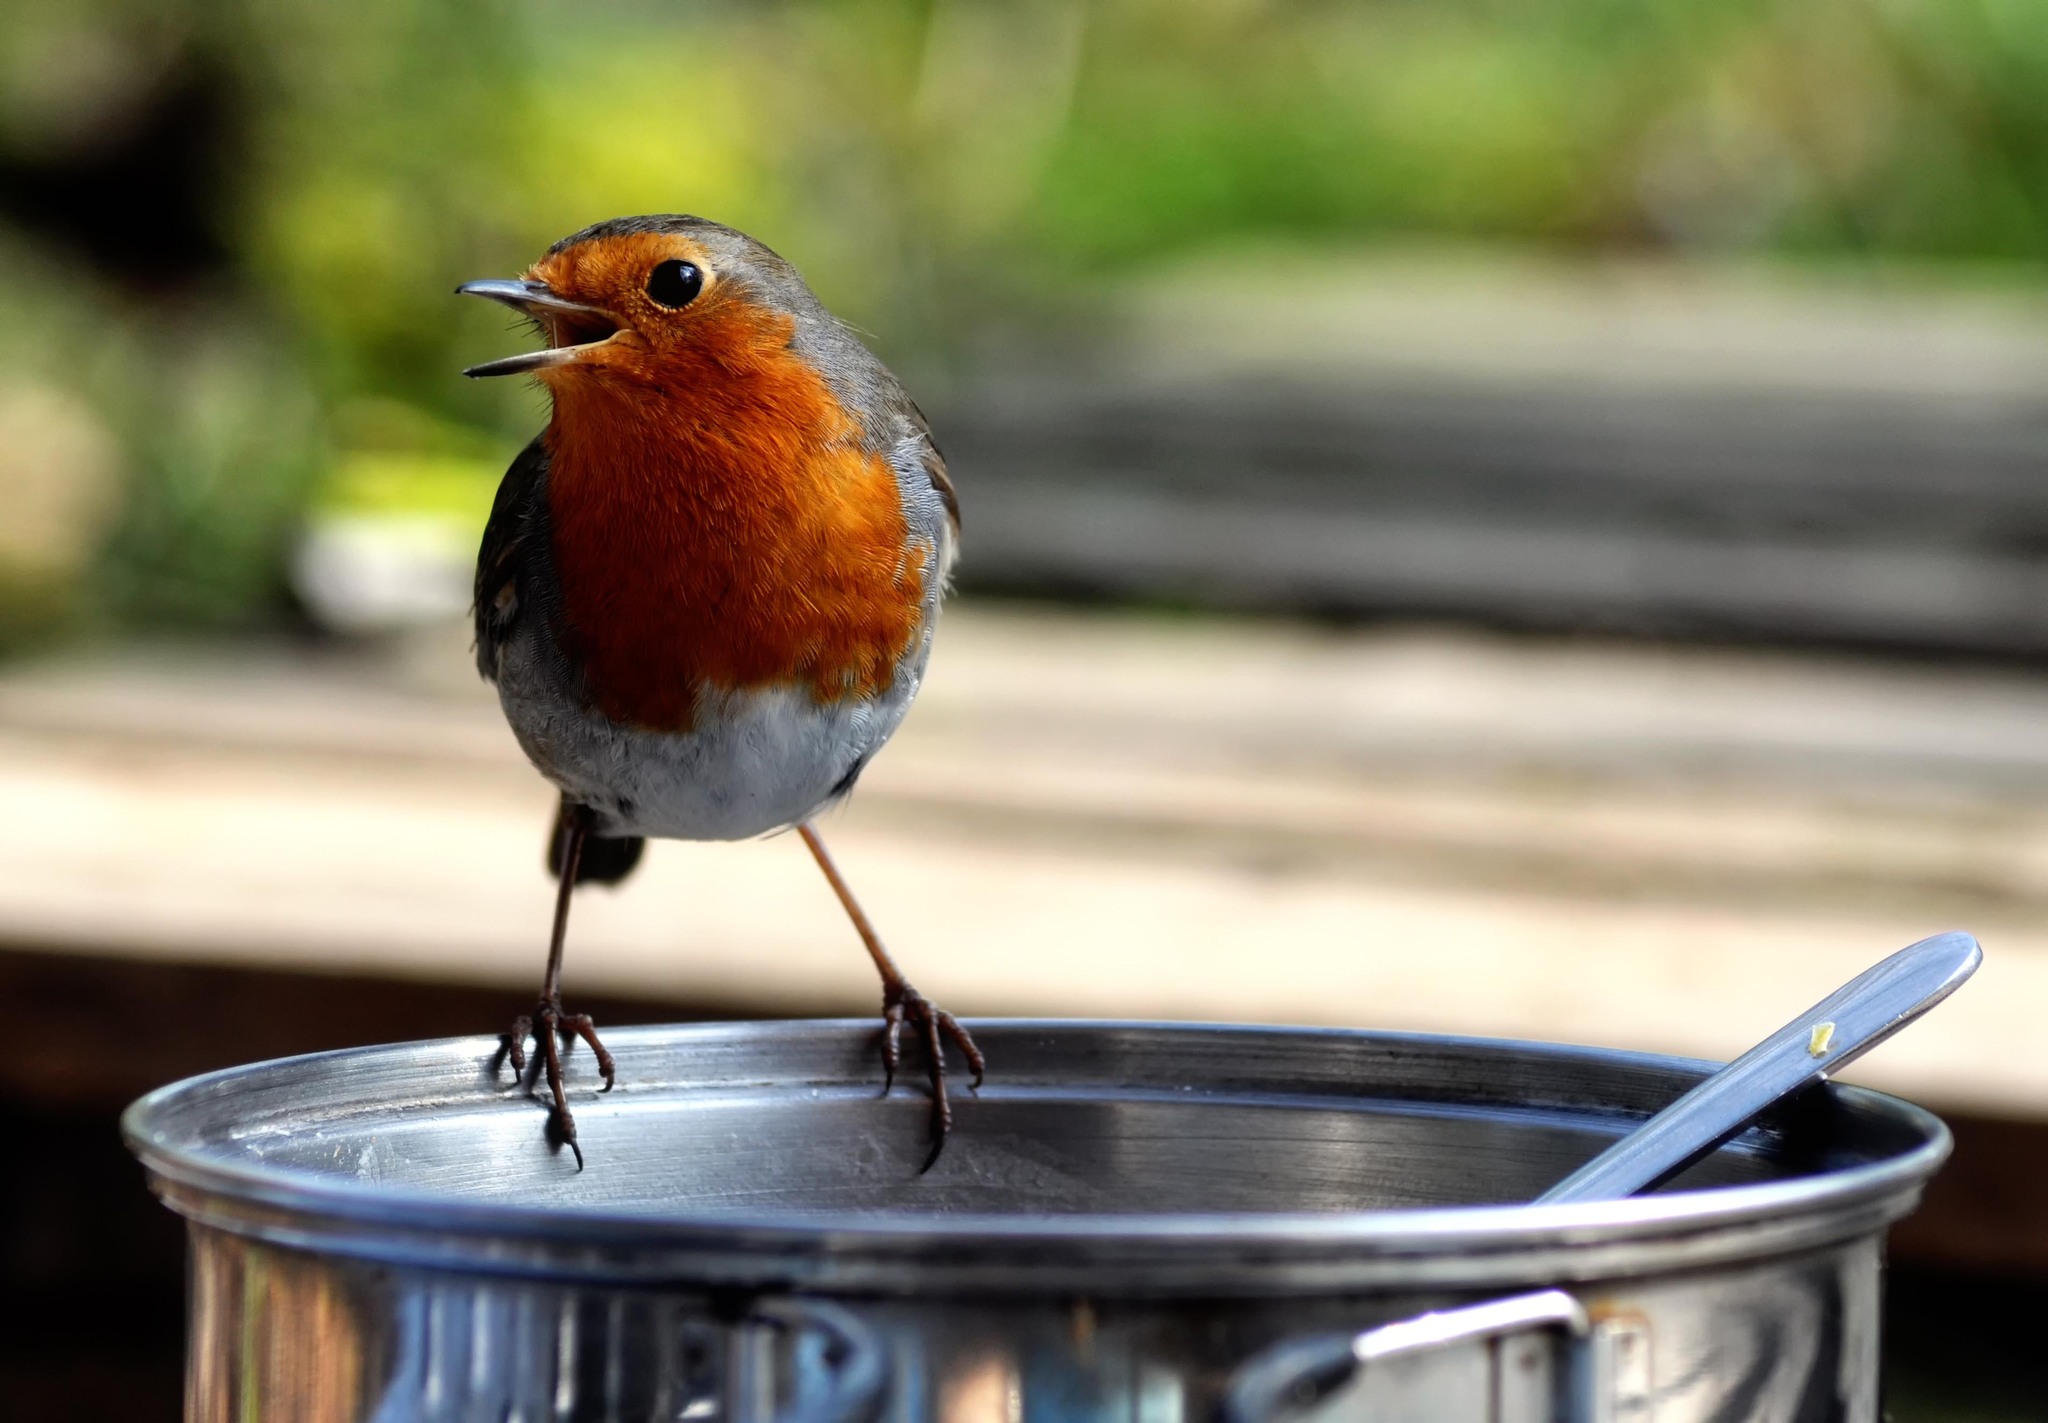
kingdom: Animalia
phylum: Chordata
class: Aves
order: Passeriformes
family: Muscicapidae
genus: Erithacus
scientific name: Erithacus rubecula
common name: European robin
